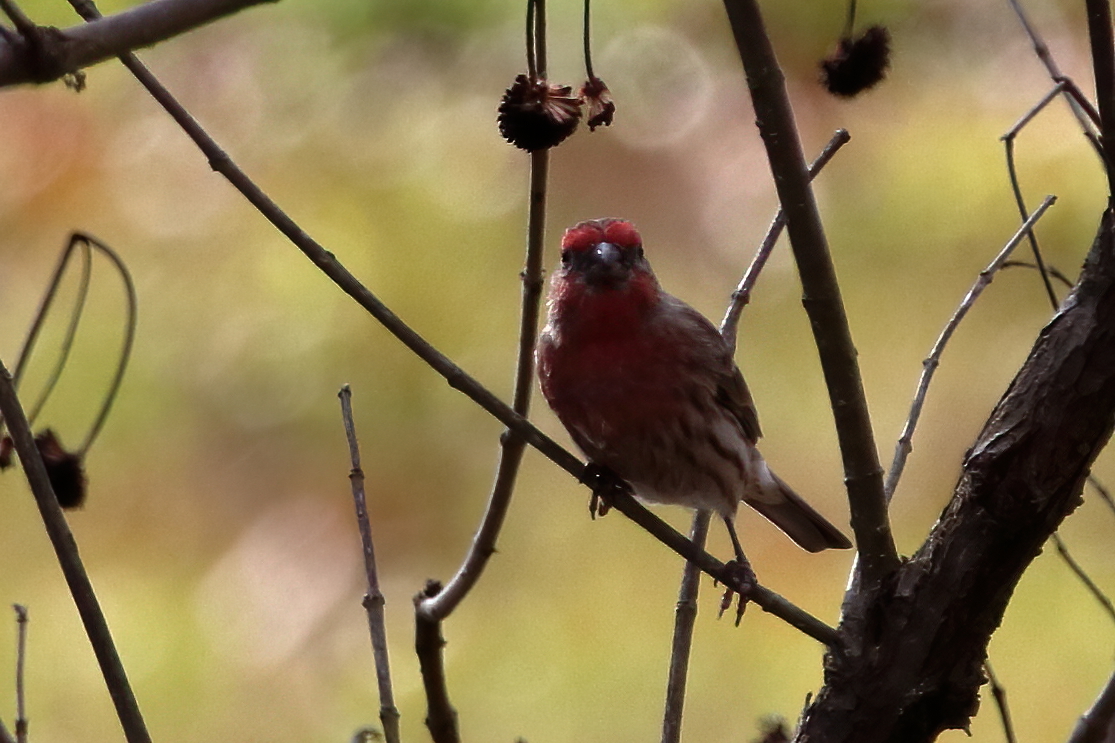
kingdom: Animalia
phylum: Chordata
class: Aves
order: Passeriformes
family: Fringillidae
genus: Haemorhous
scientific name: Haemorhous mexicanus
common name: House finch
